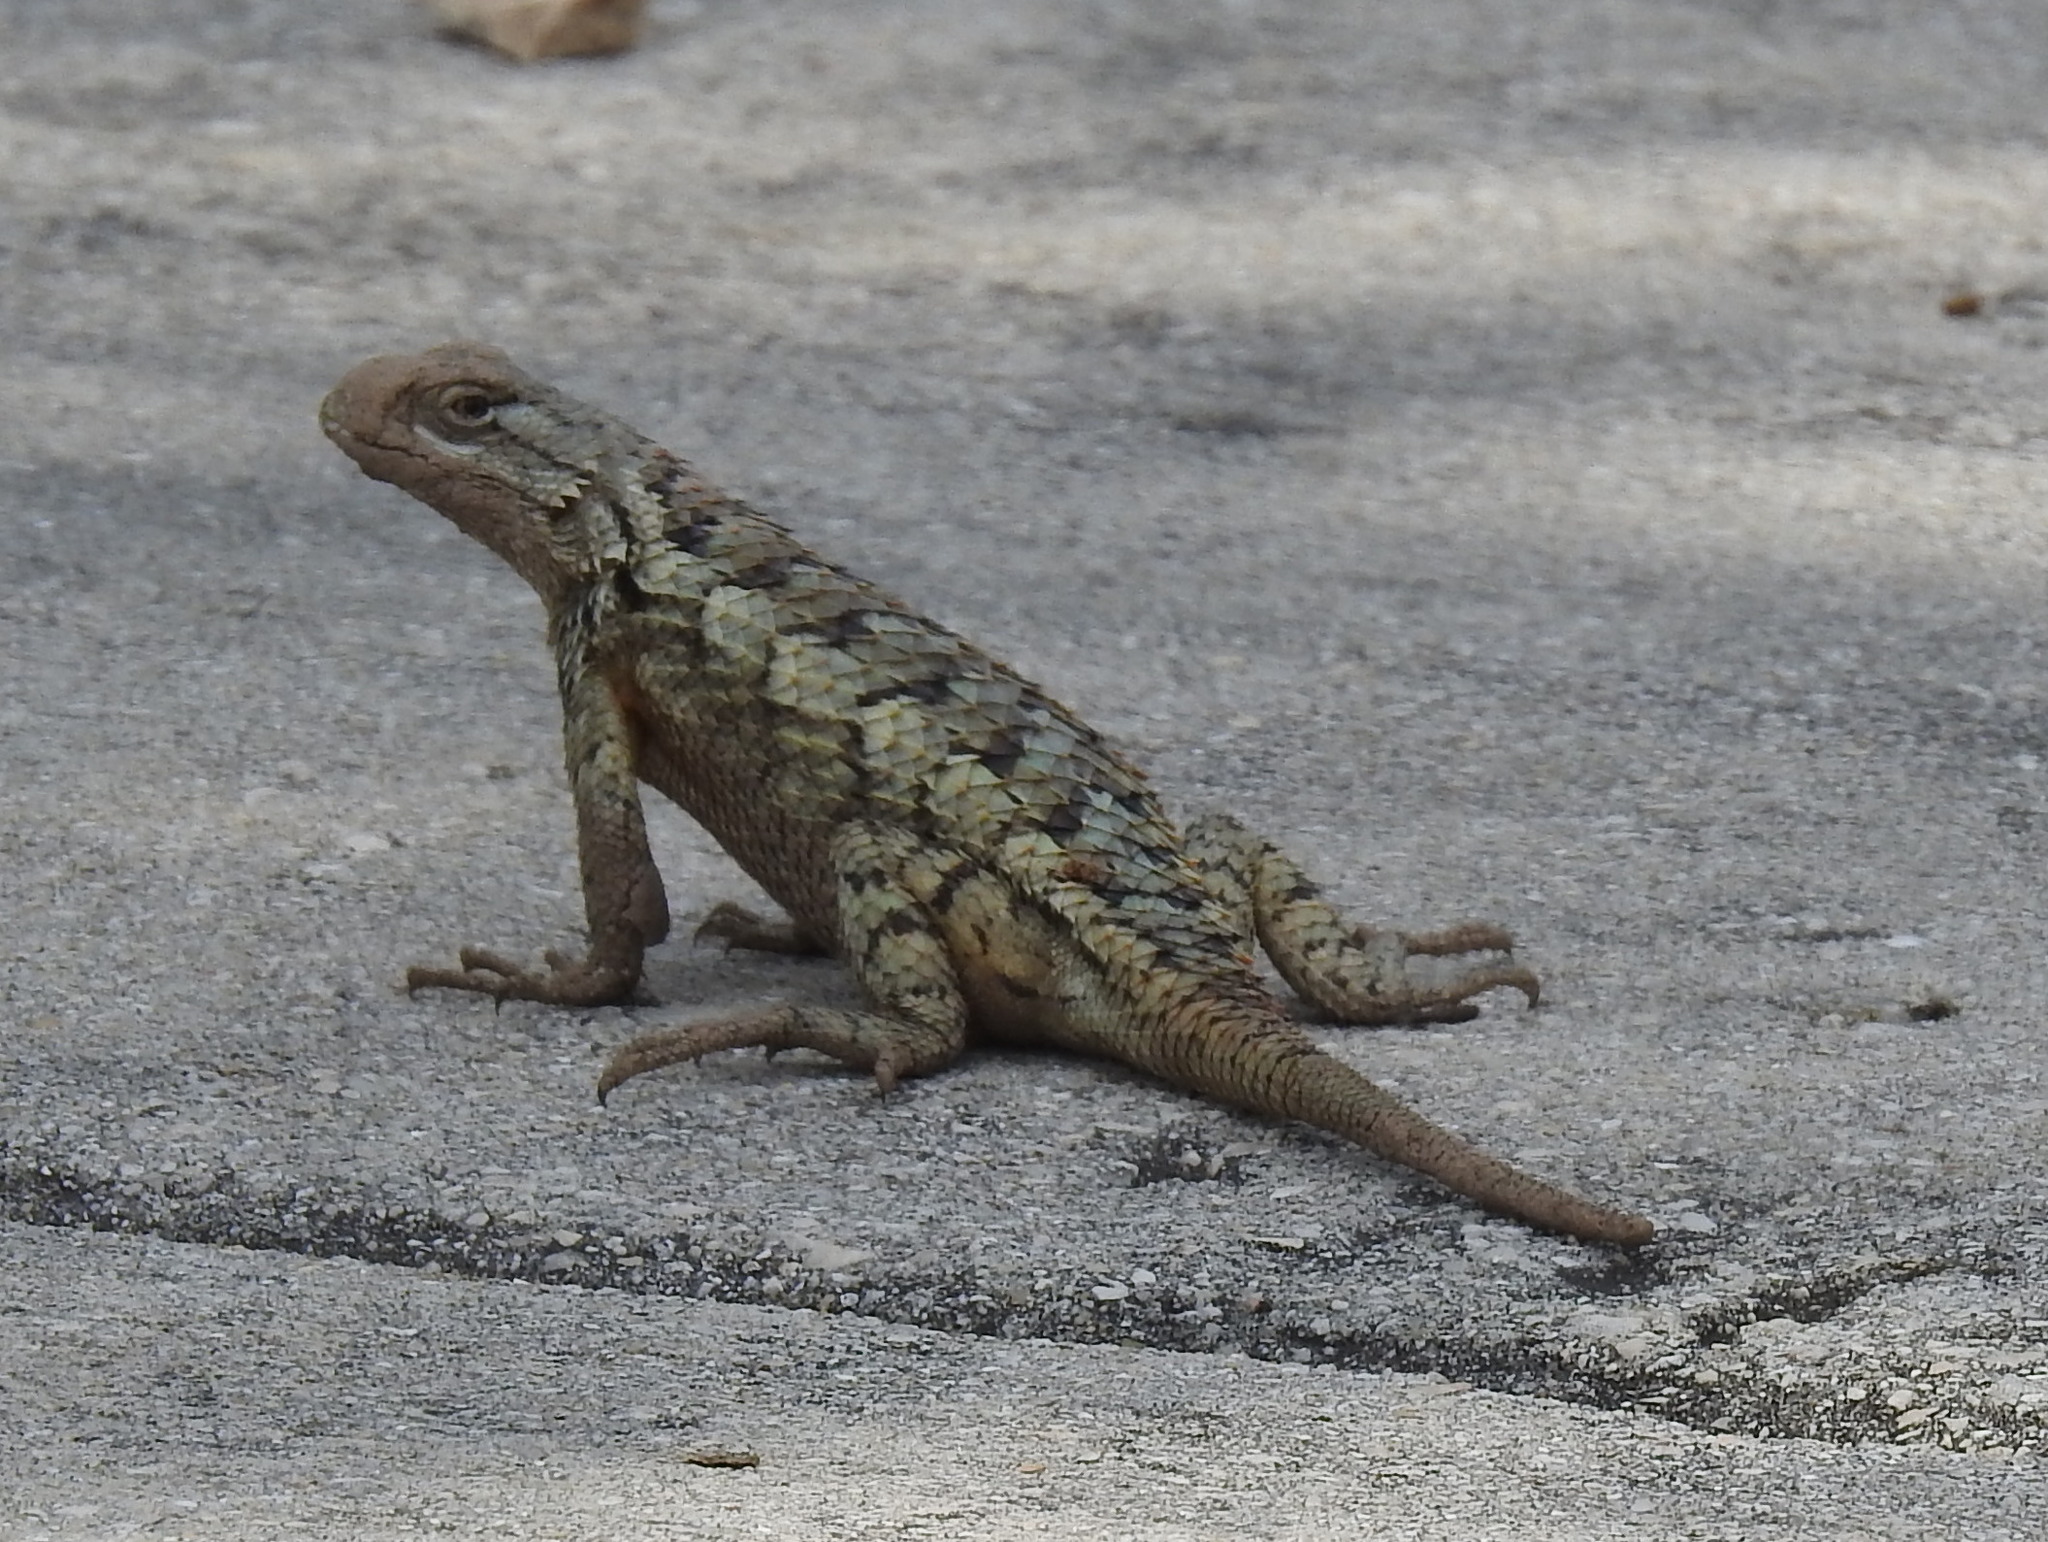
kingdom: Animalia
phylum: Chordata
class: Squamata
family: Phrynosomatidae
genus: Sceloporus
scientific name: Sceloporus olivaceus
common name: Texas spiny lizard
